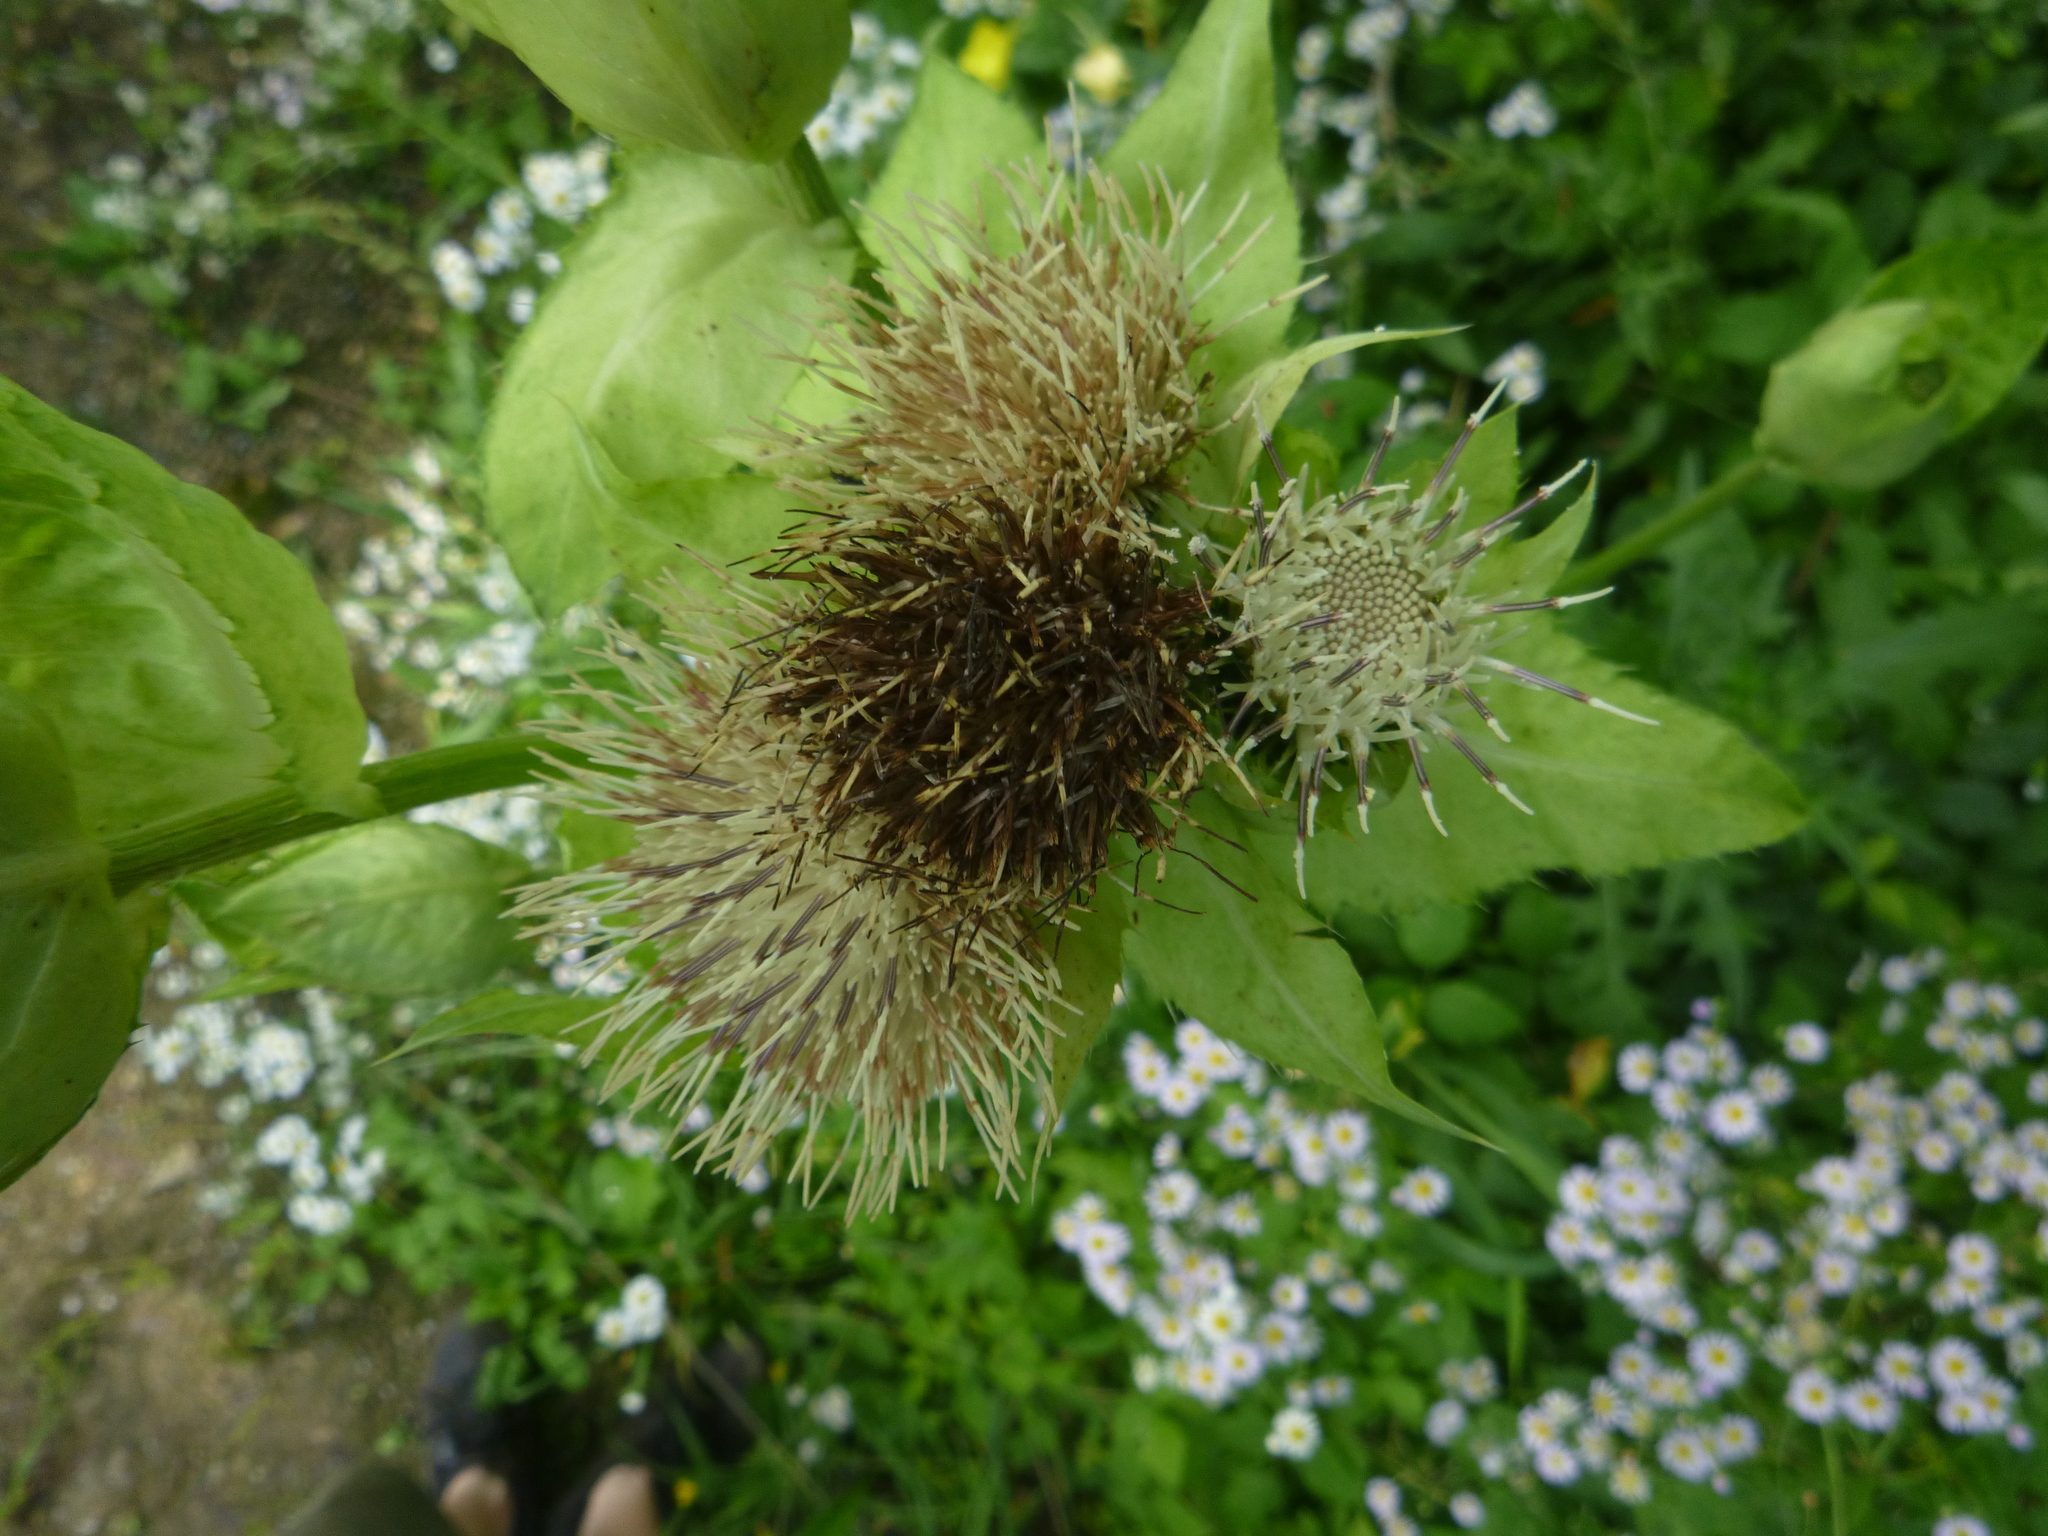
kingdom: Plantae
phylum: Tracheophyta
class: Magnoliopsida
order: Asterales
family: Asteraceae
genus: Cirsium
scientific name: Cirsium oleraceum
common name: Cabbage thistle
